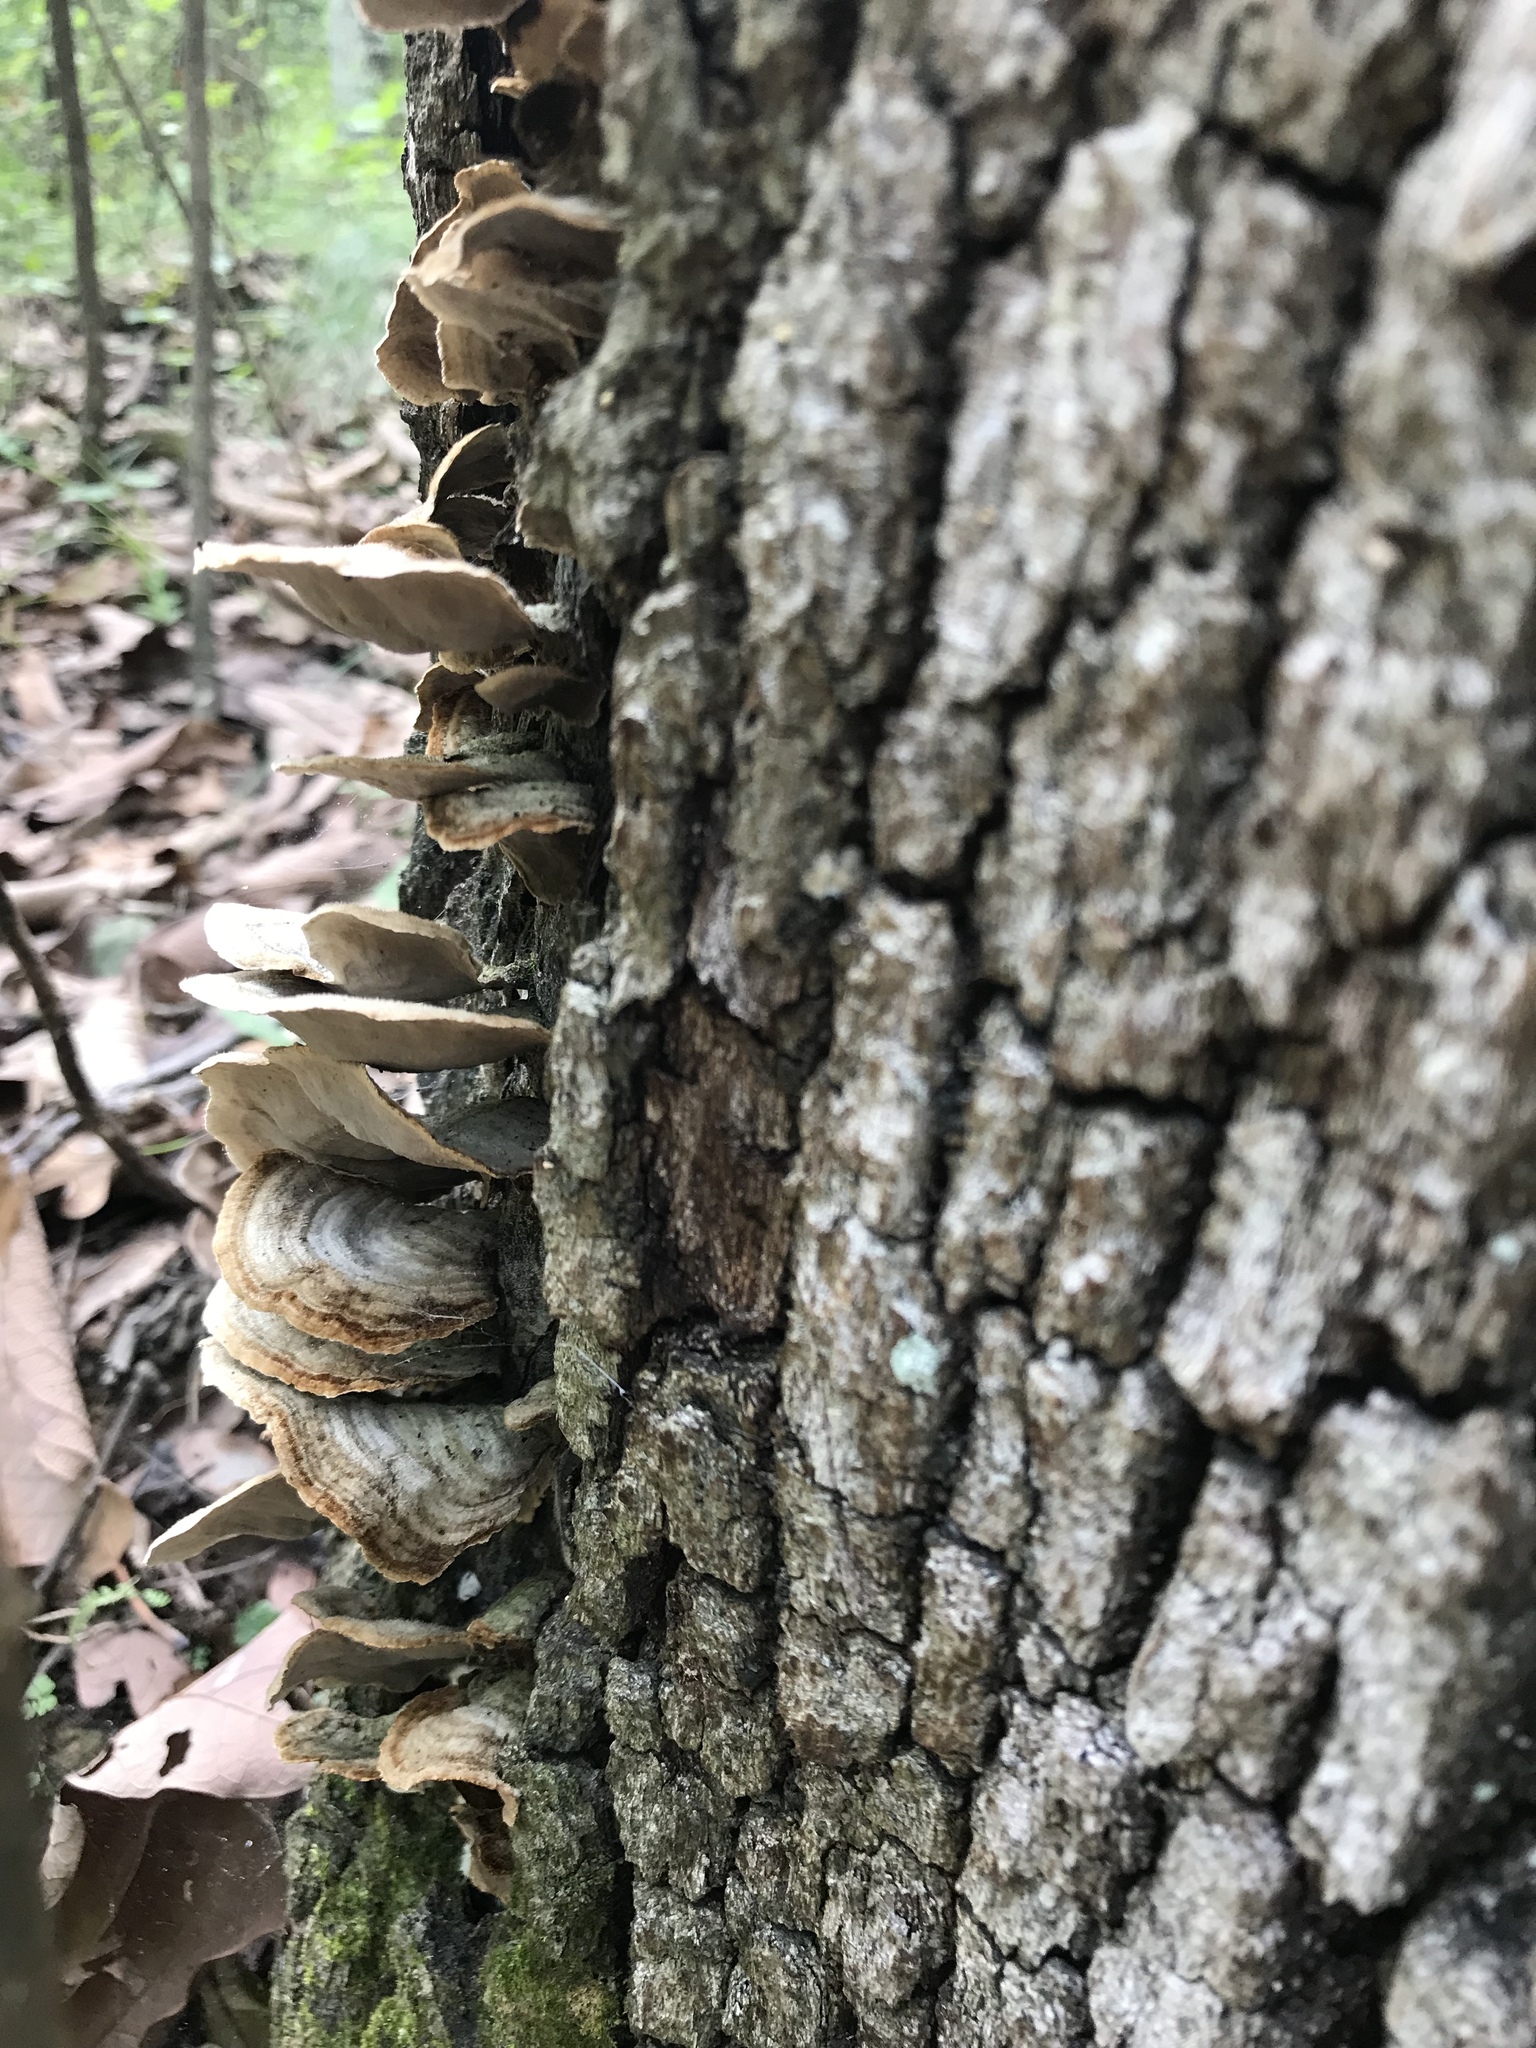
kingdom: Fungi
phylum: Basidiomycota
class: Agaricomycetes
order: Russulales
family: Stereaceae
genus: Stereum
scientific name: Stereum ostrea
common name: False turkeytail
